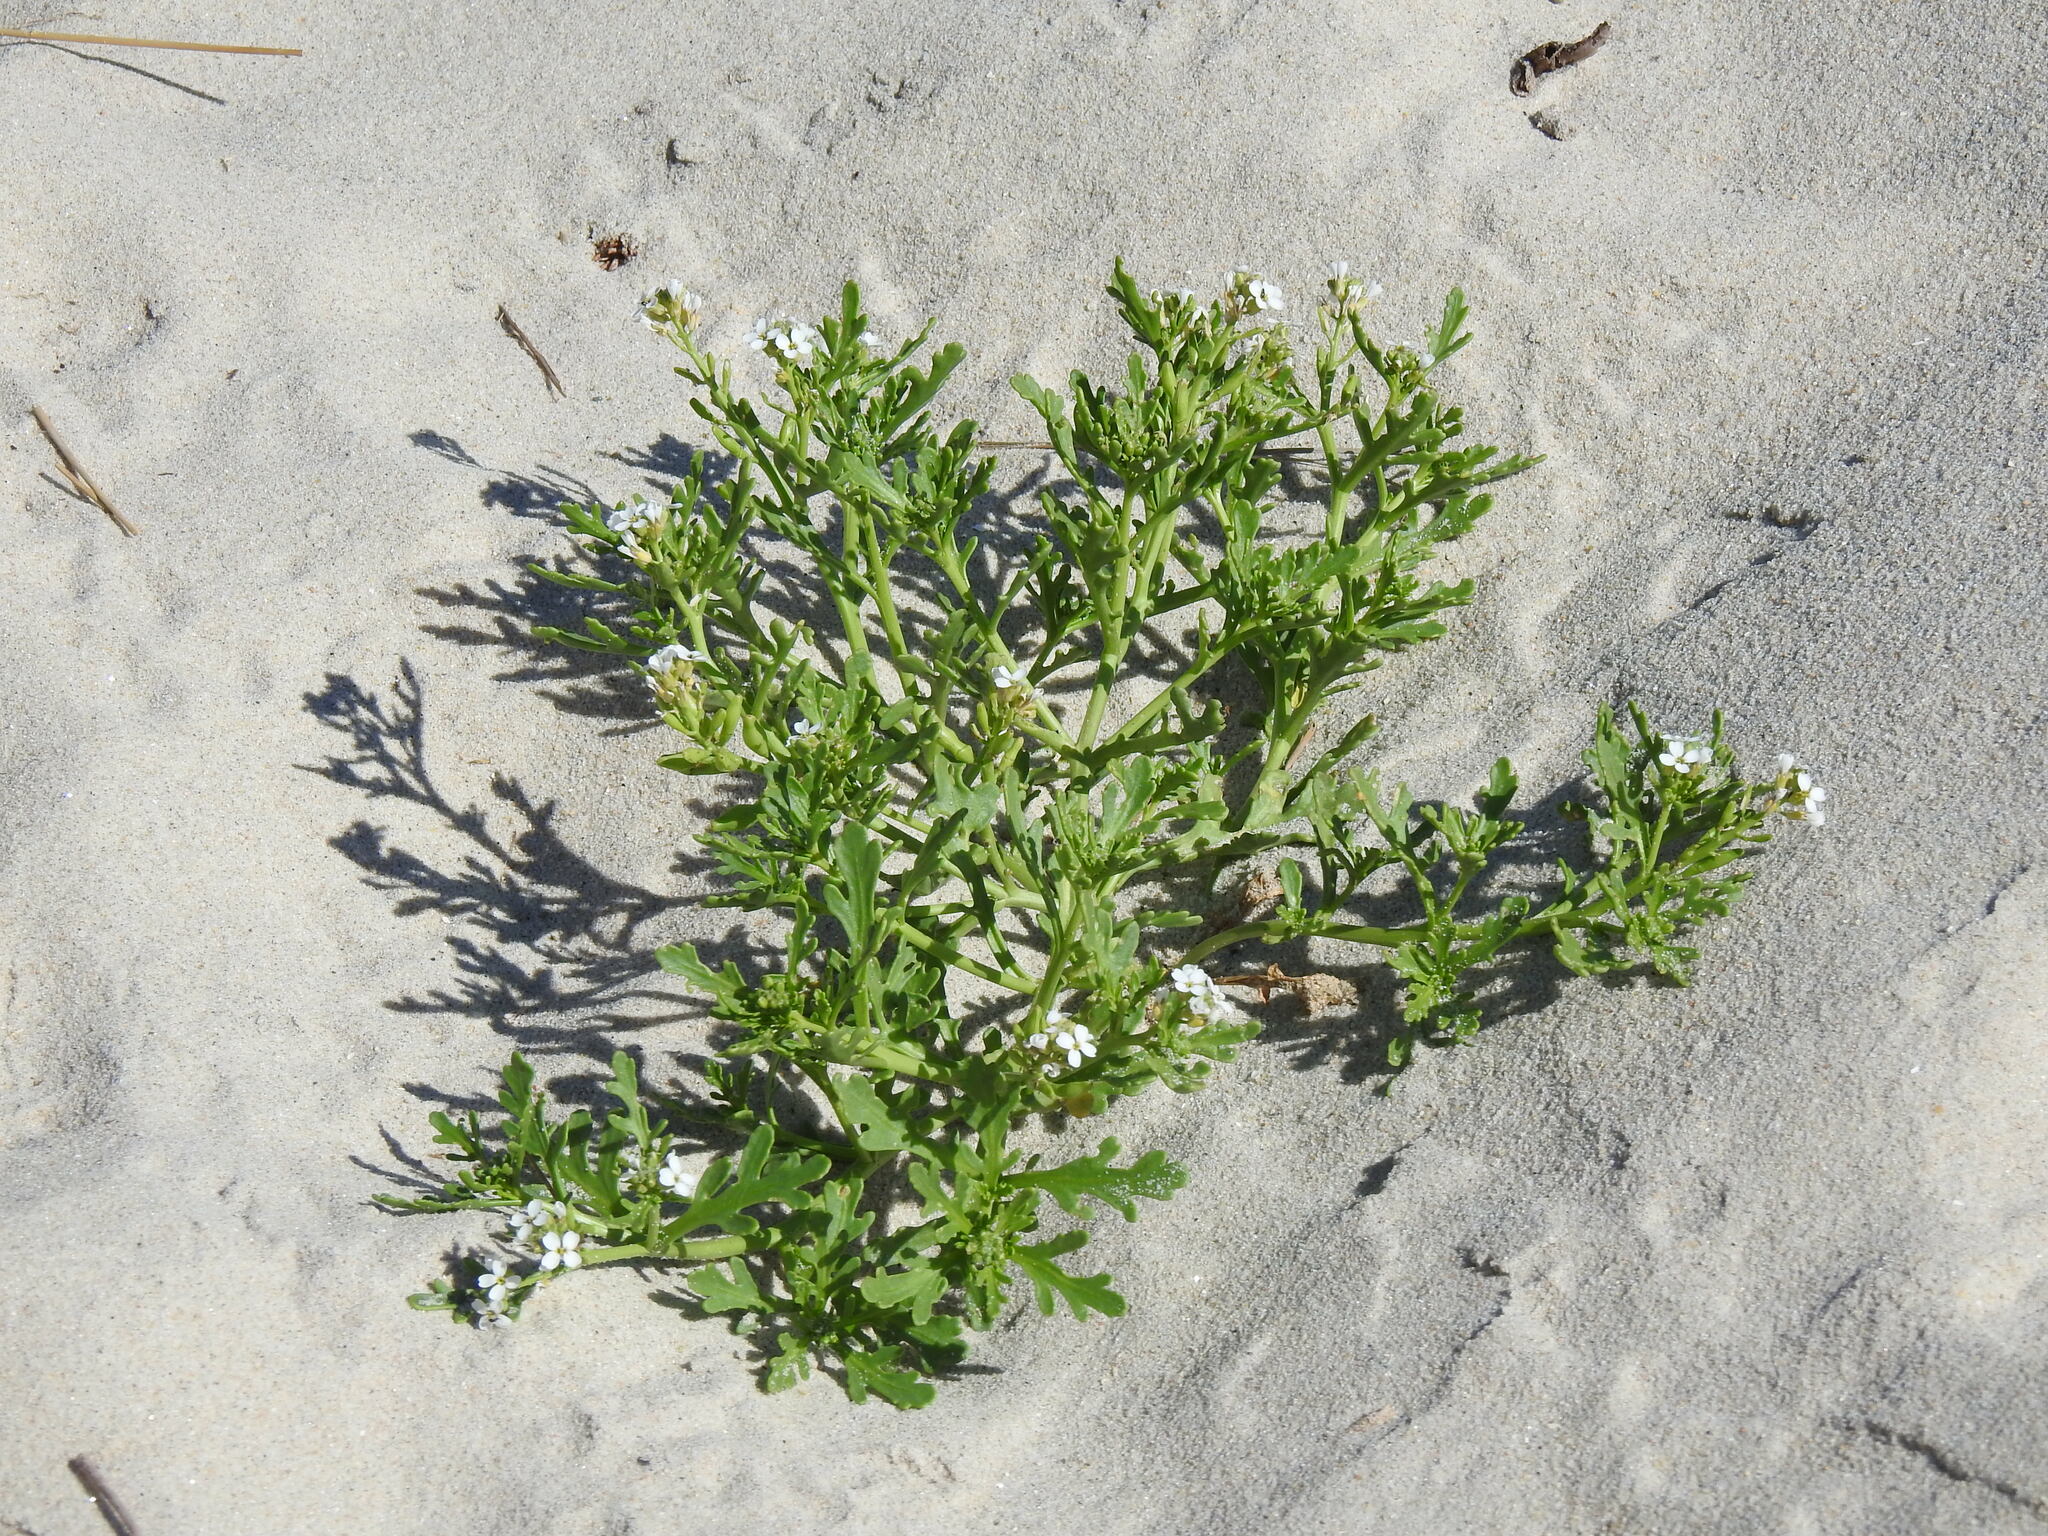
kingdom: Plantae
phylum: Tracheophyta
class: Magnoliopsida
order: Brassicales
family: Brassicaceae
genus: Cakile
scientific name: Cakile maritima
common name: Sea rocket
